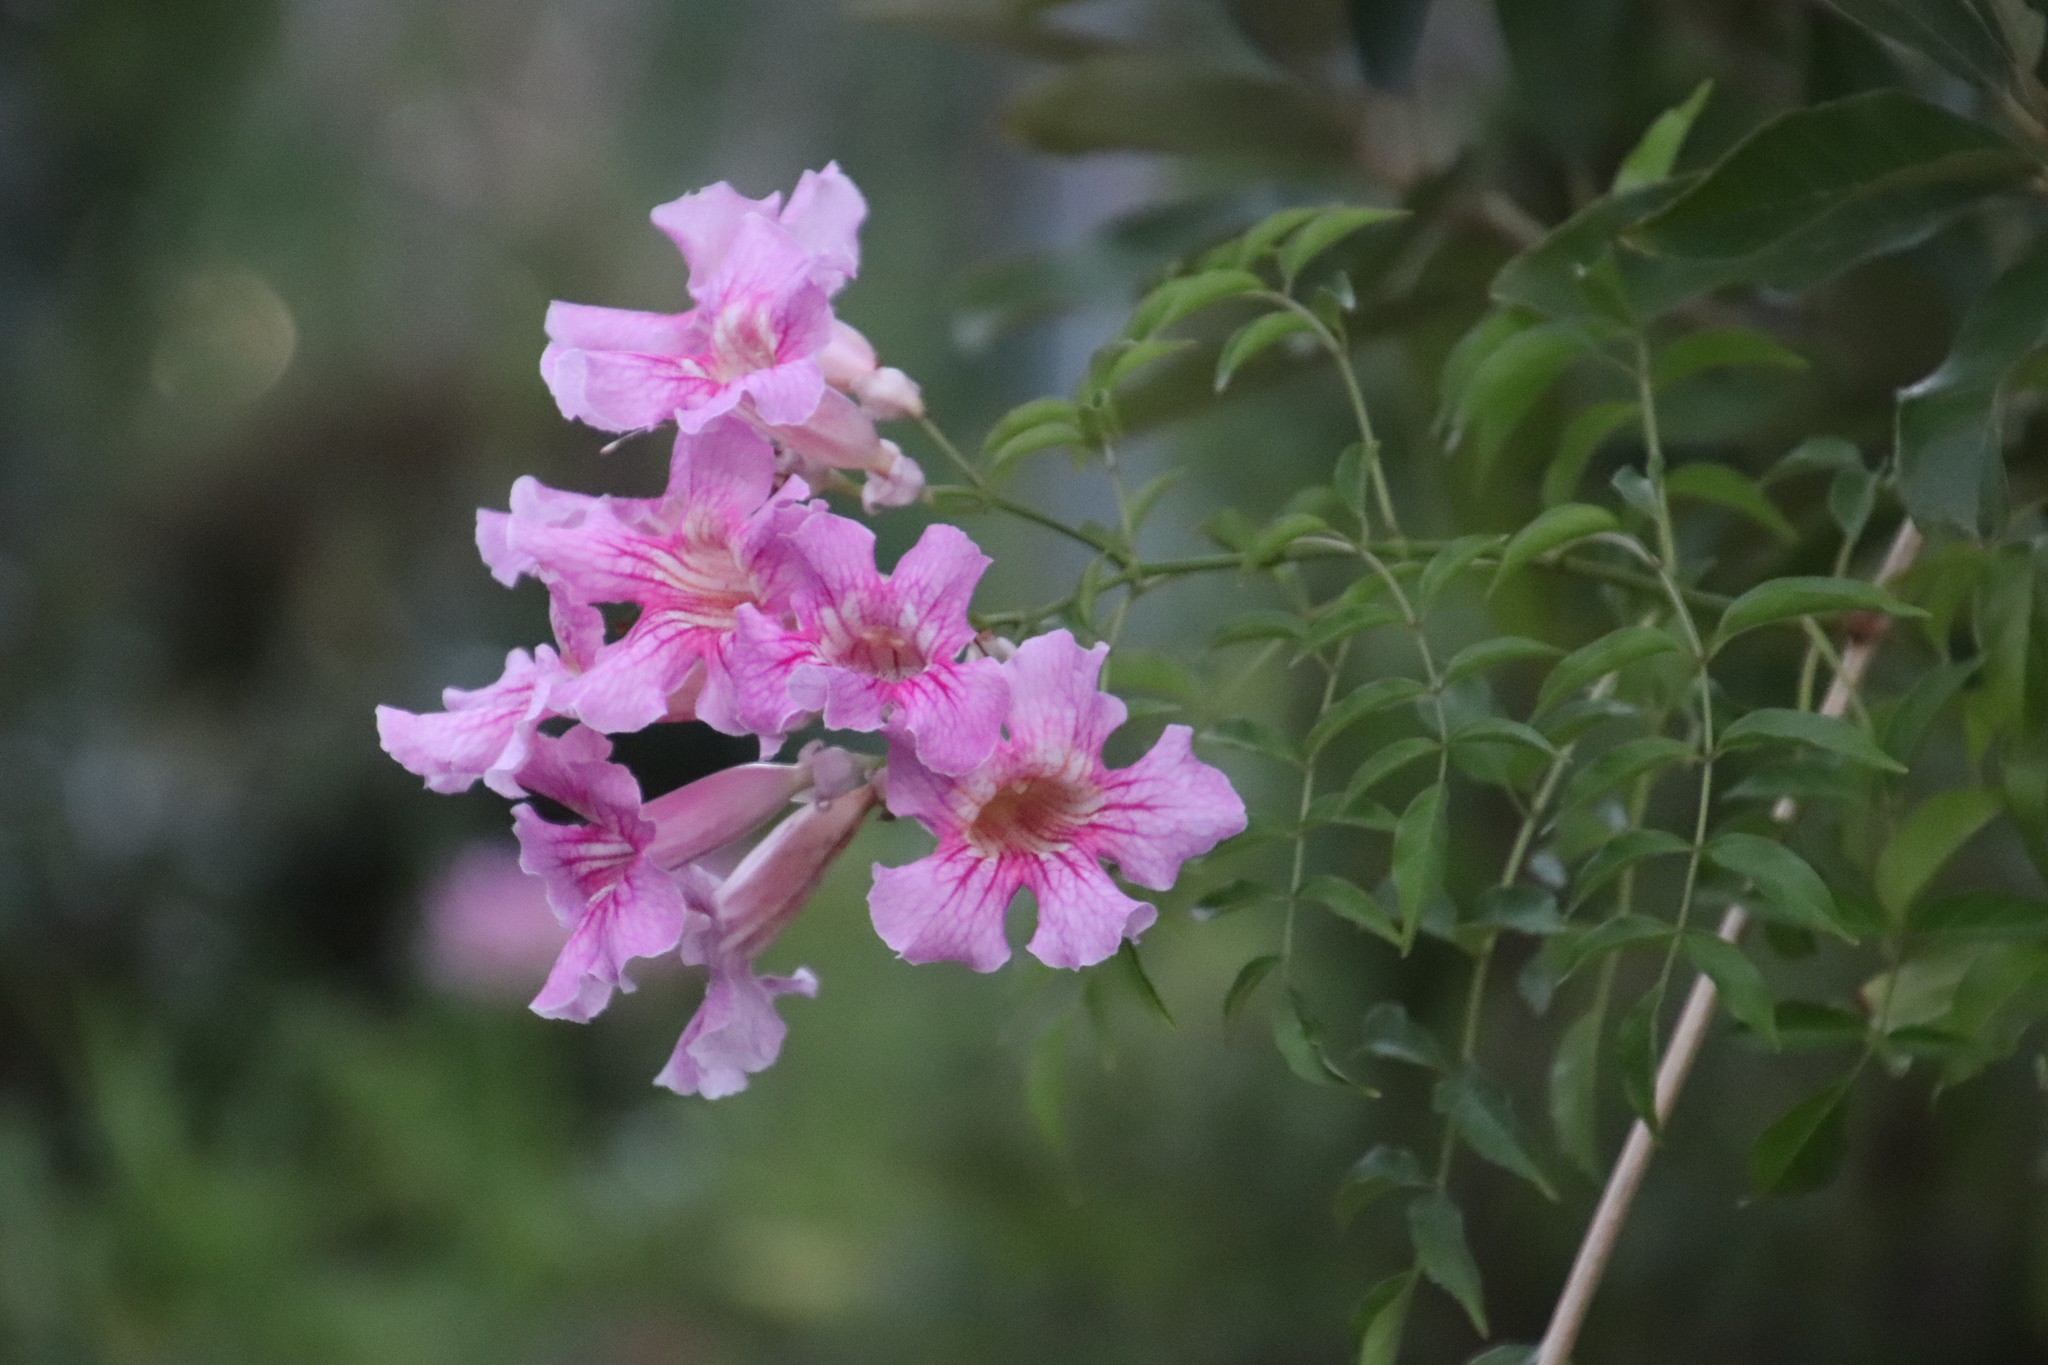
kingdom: Plantae
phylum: Tracheophyta
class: Magnoliopsida
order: Lamiales
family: Bignoniaceae
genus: Podranea
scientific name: Podranea ricasoliana
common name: Zimbabwe creeper
